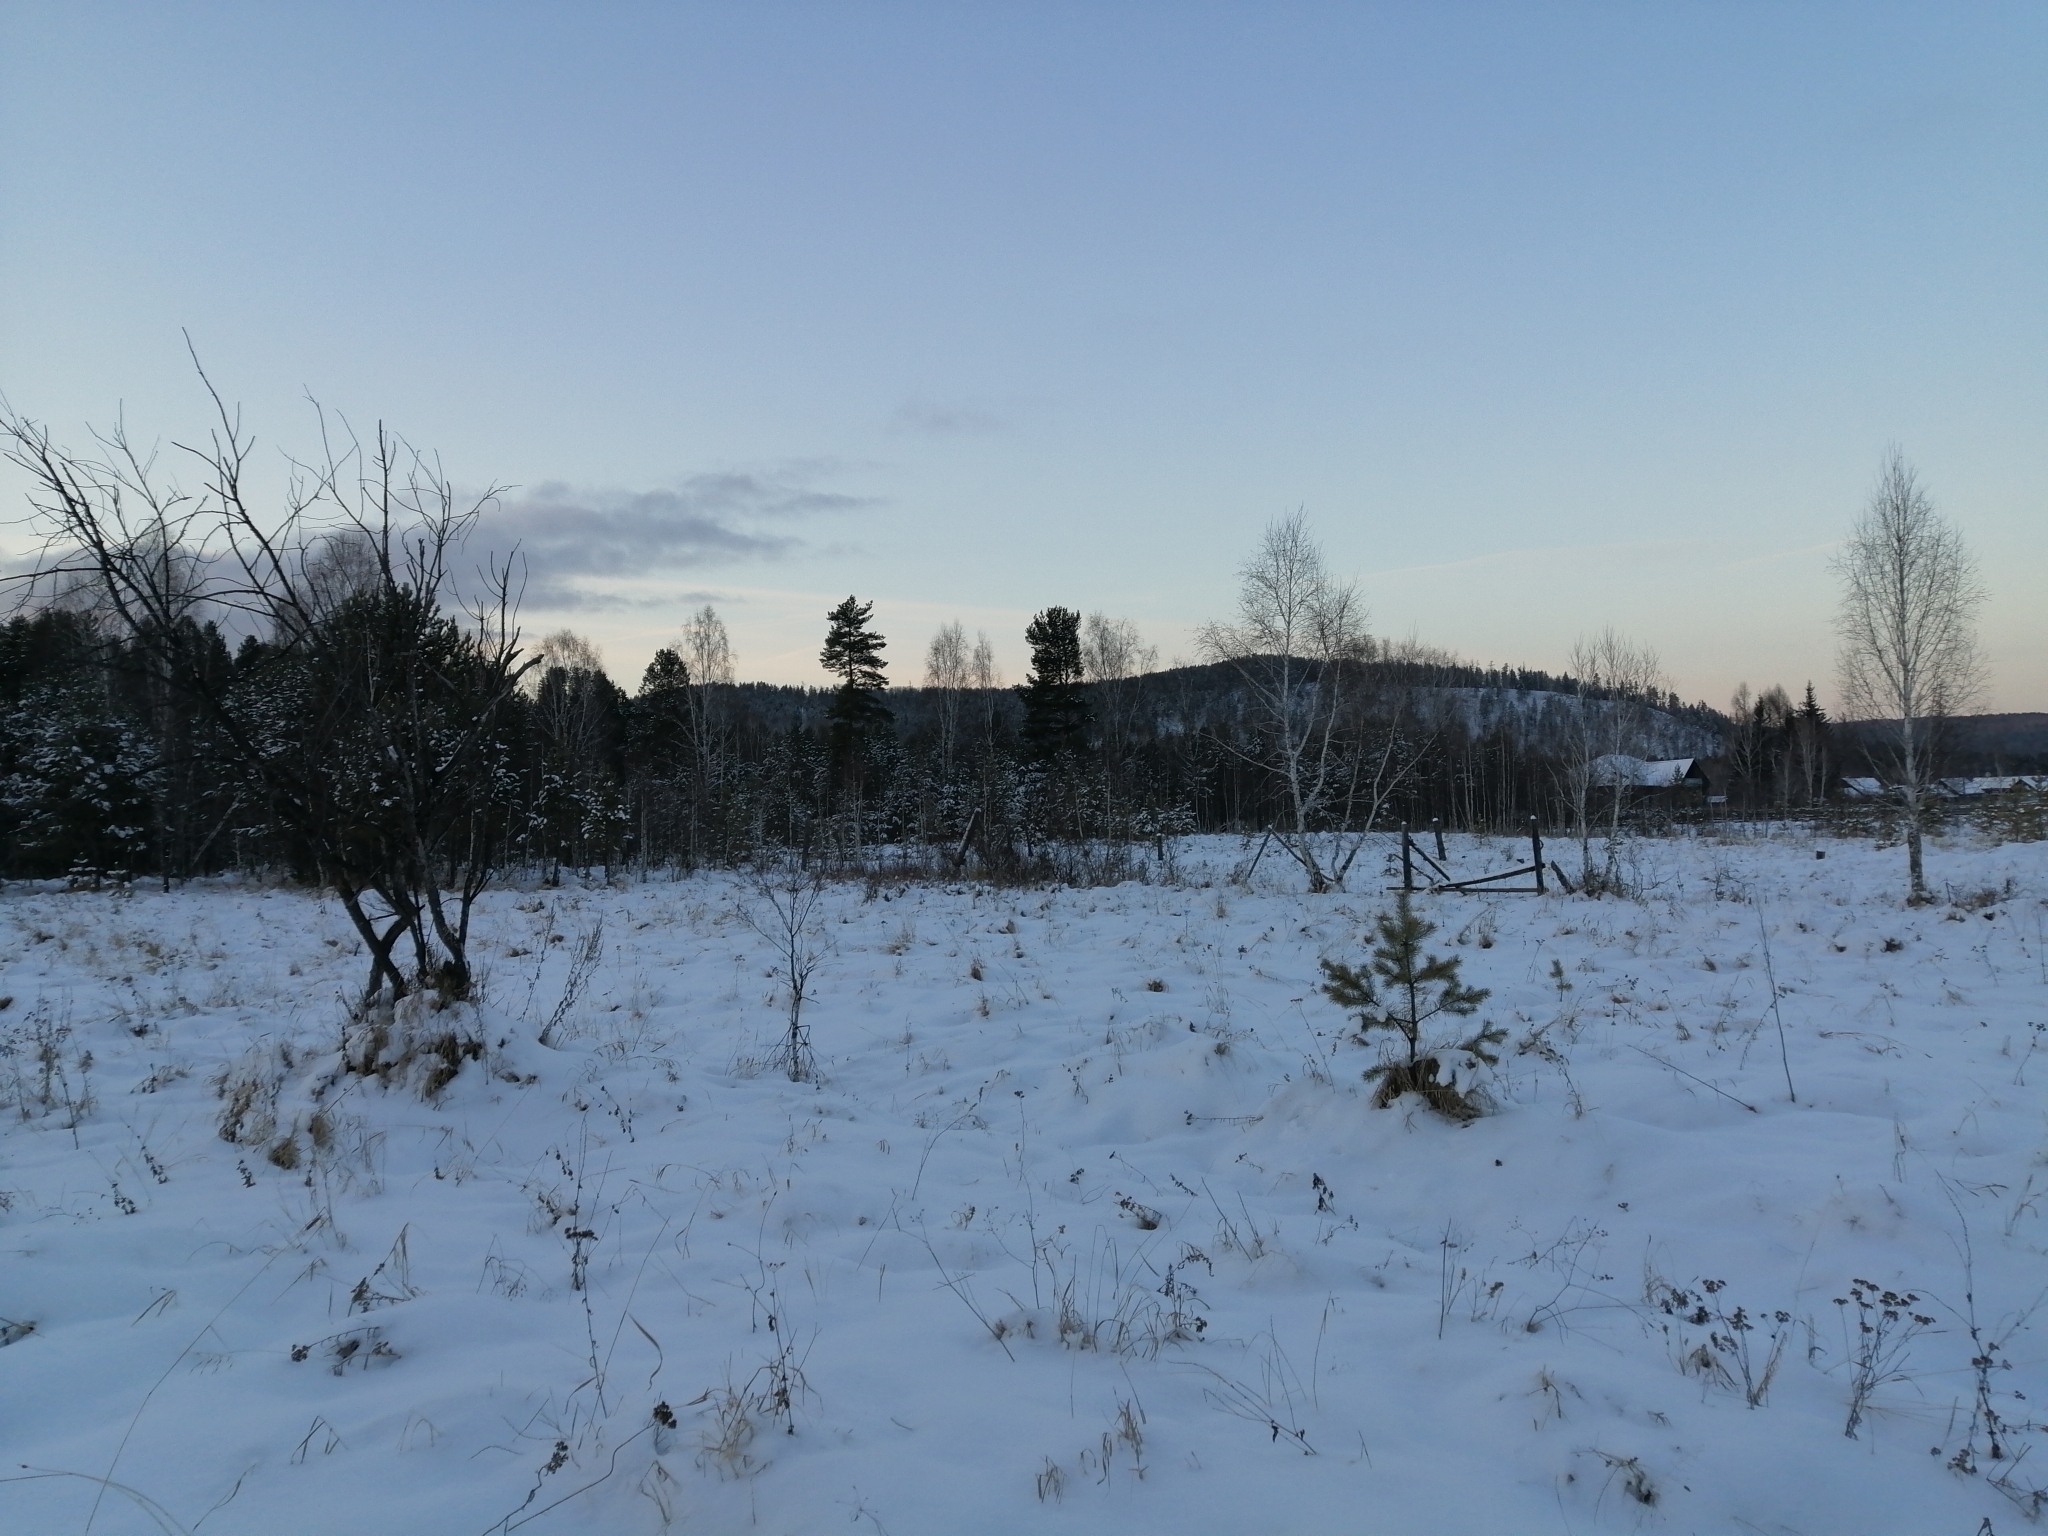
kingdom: Plantae
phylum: Tracheophyta
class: Pinopsida
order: Pinales
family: Pinaceae
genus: Pinus
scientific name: Pinus sylvestris
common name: Scots pine
